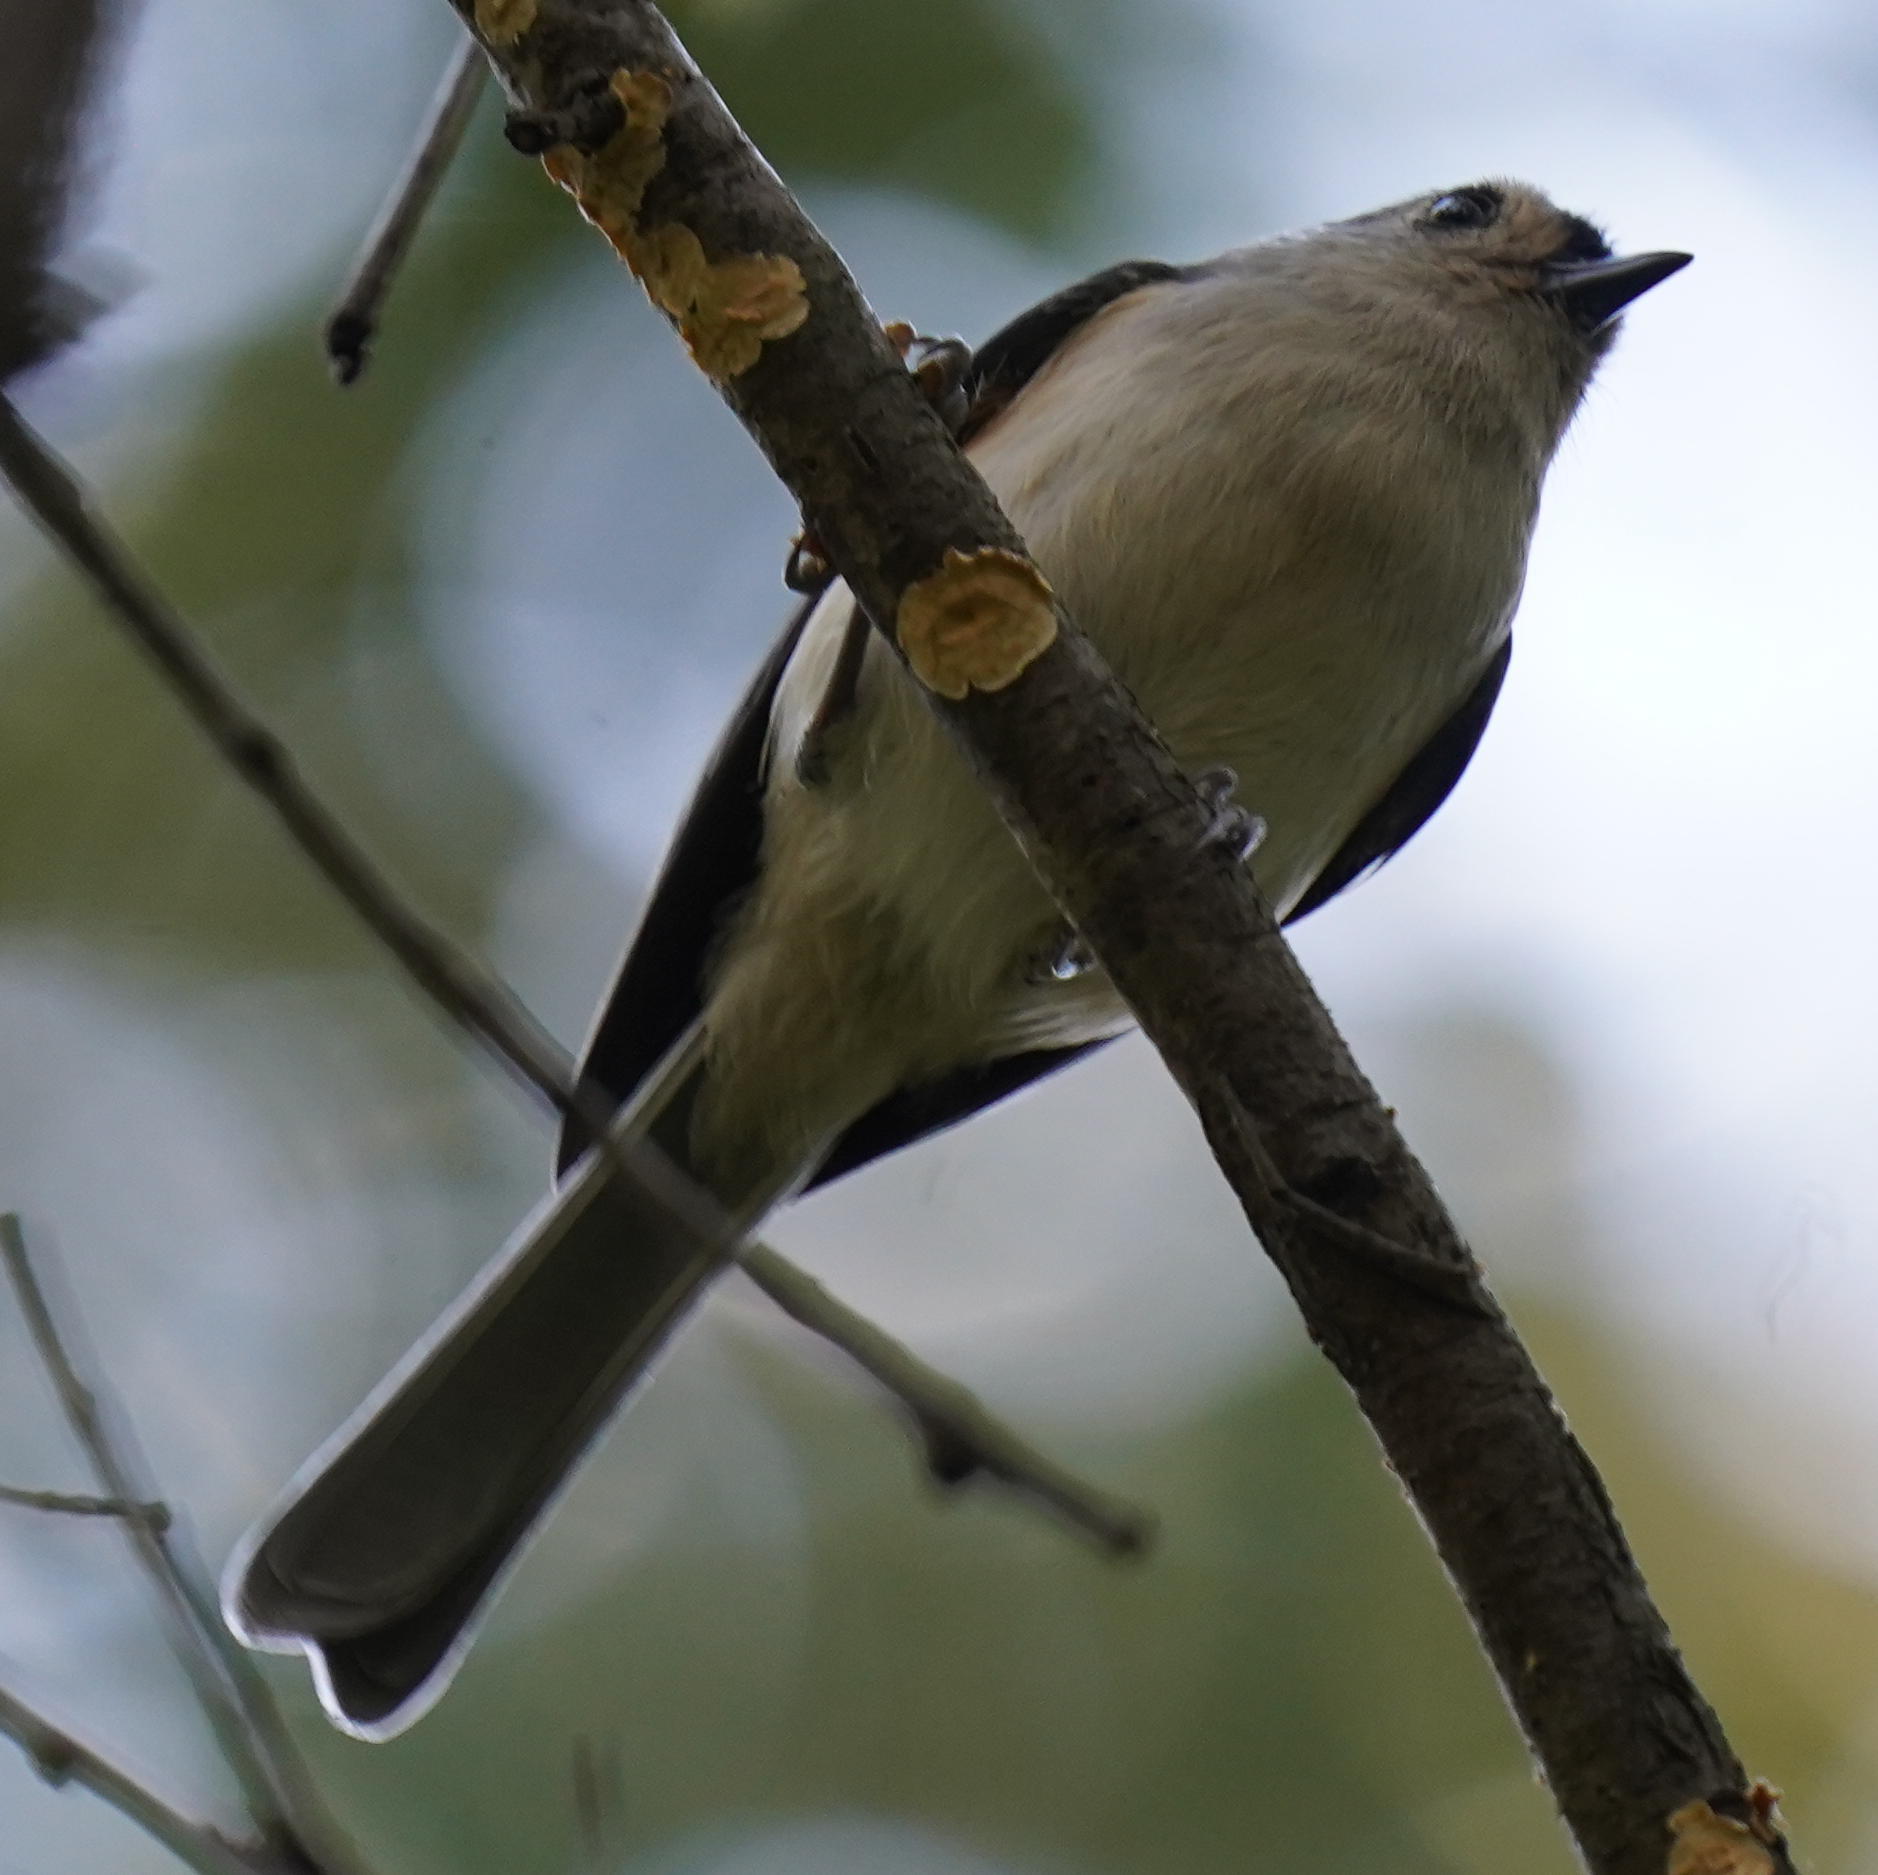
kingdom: Animalia
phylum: Chordata
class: Aves
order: Passeriformes
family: Paridae
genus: Baeolophus
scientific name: Baeolophus bicolor
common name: Tufted titmouse
